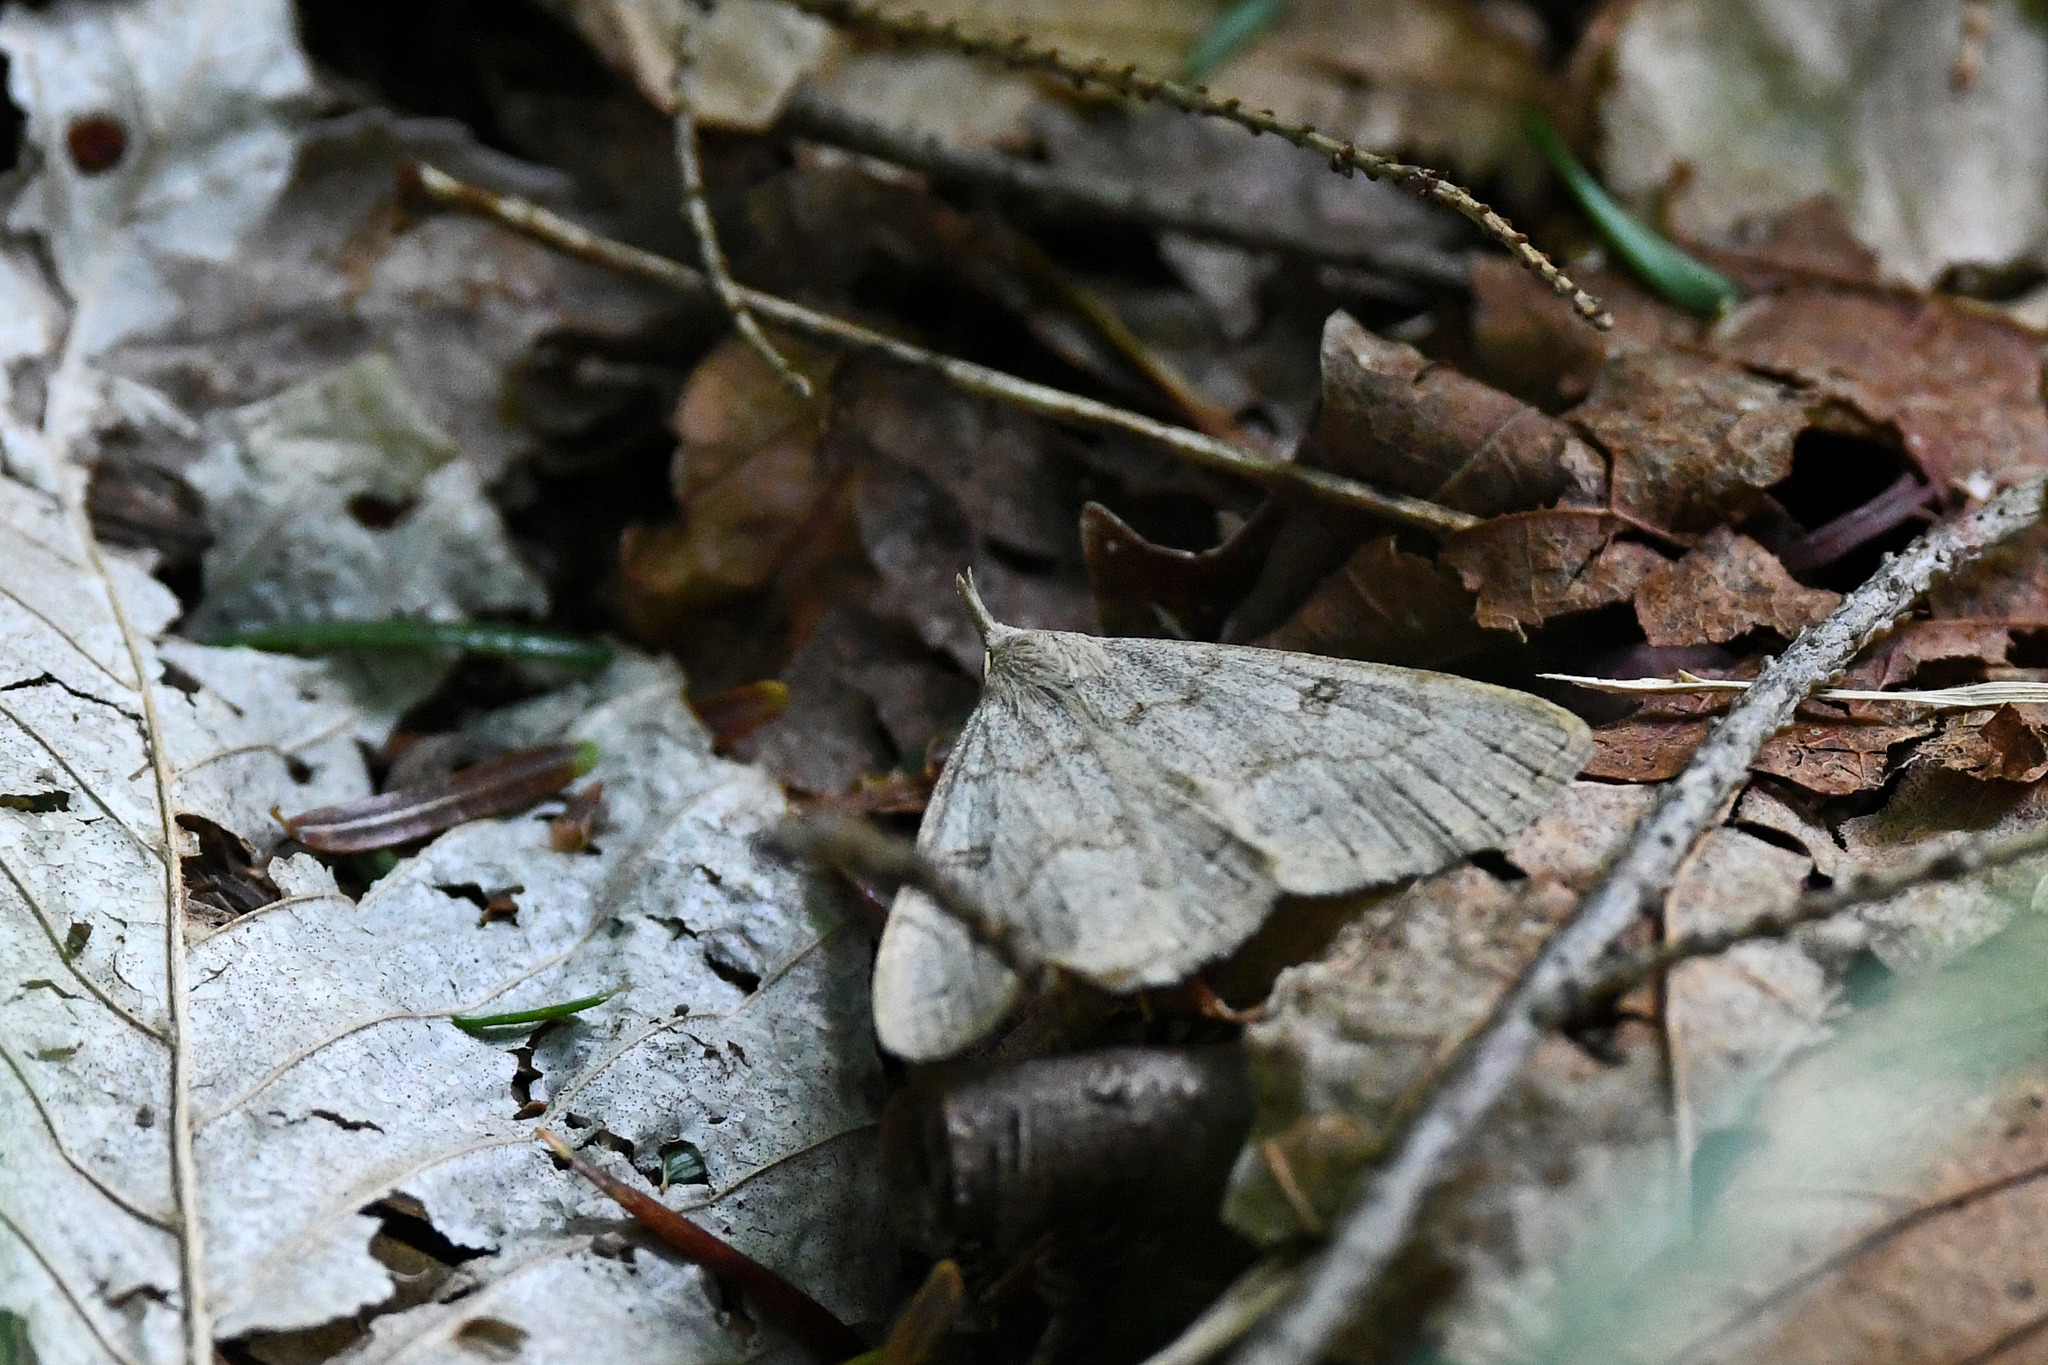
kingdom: Animalia
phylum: Arthropoda
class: Insecta
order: Lepidoptera
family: Erebidae
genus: Macrochilo
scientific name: Macrochilo morbidalis
